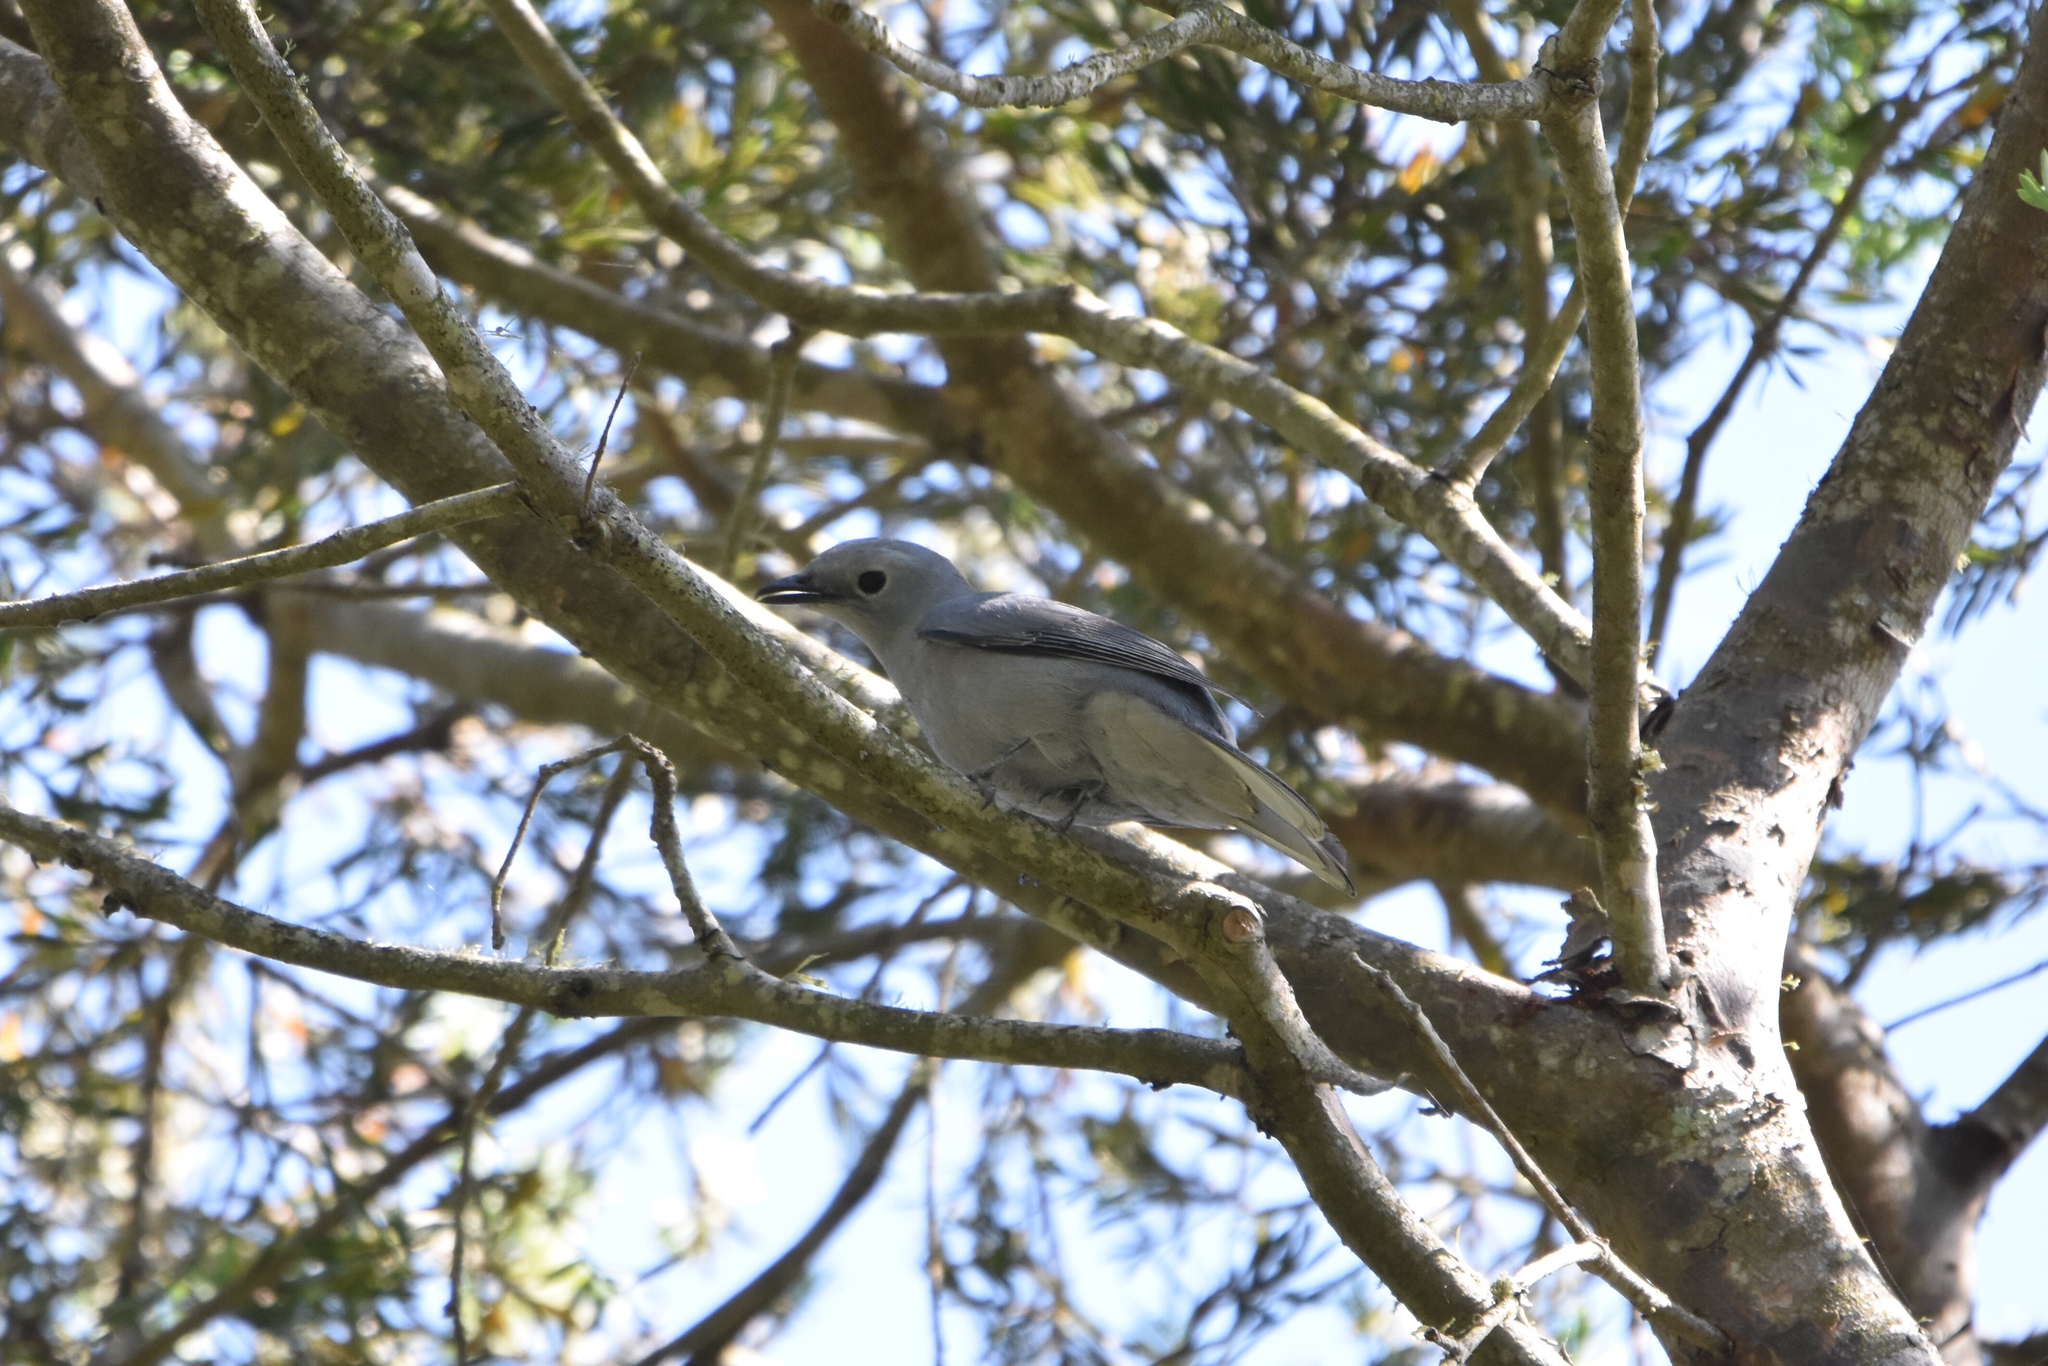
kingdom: Animalia
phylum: Chordata
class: Aves
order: Passeriformes
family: Campephagidae
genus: Coracina
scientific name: Coracina caesia
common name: Grey cuckooshrike
